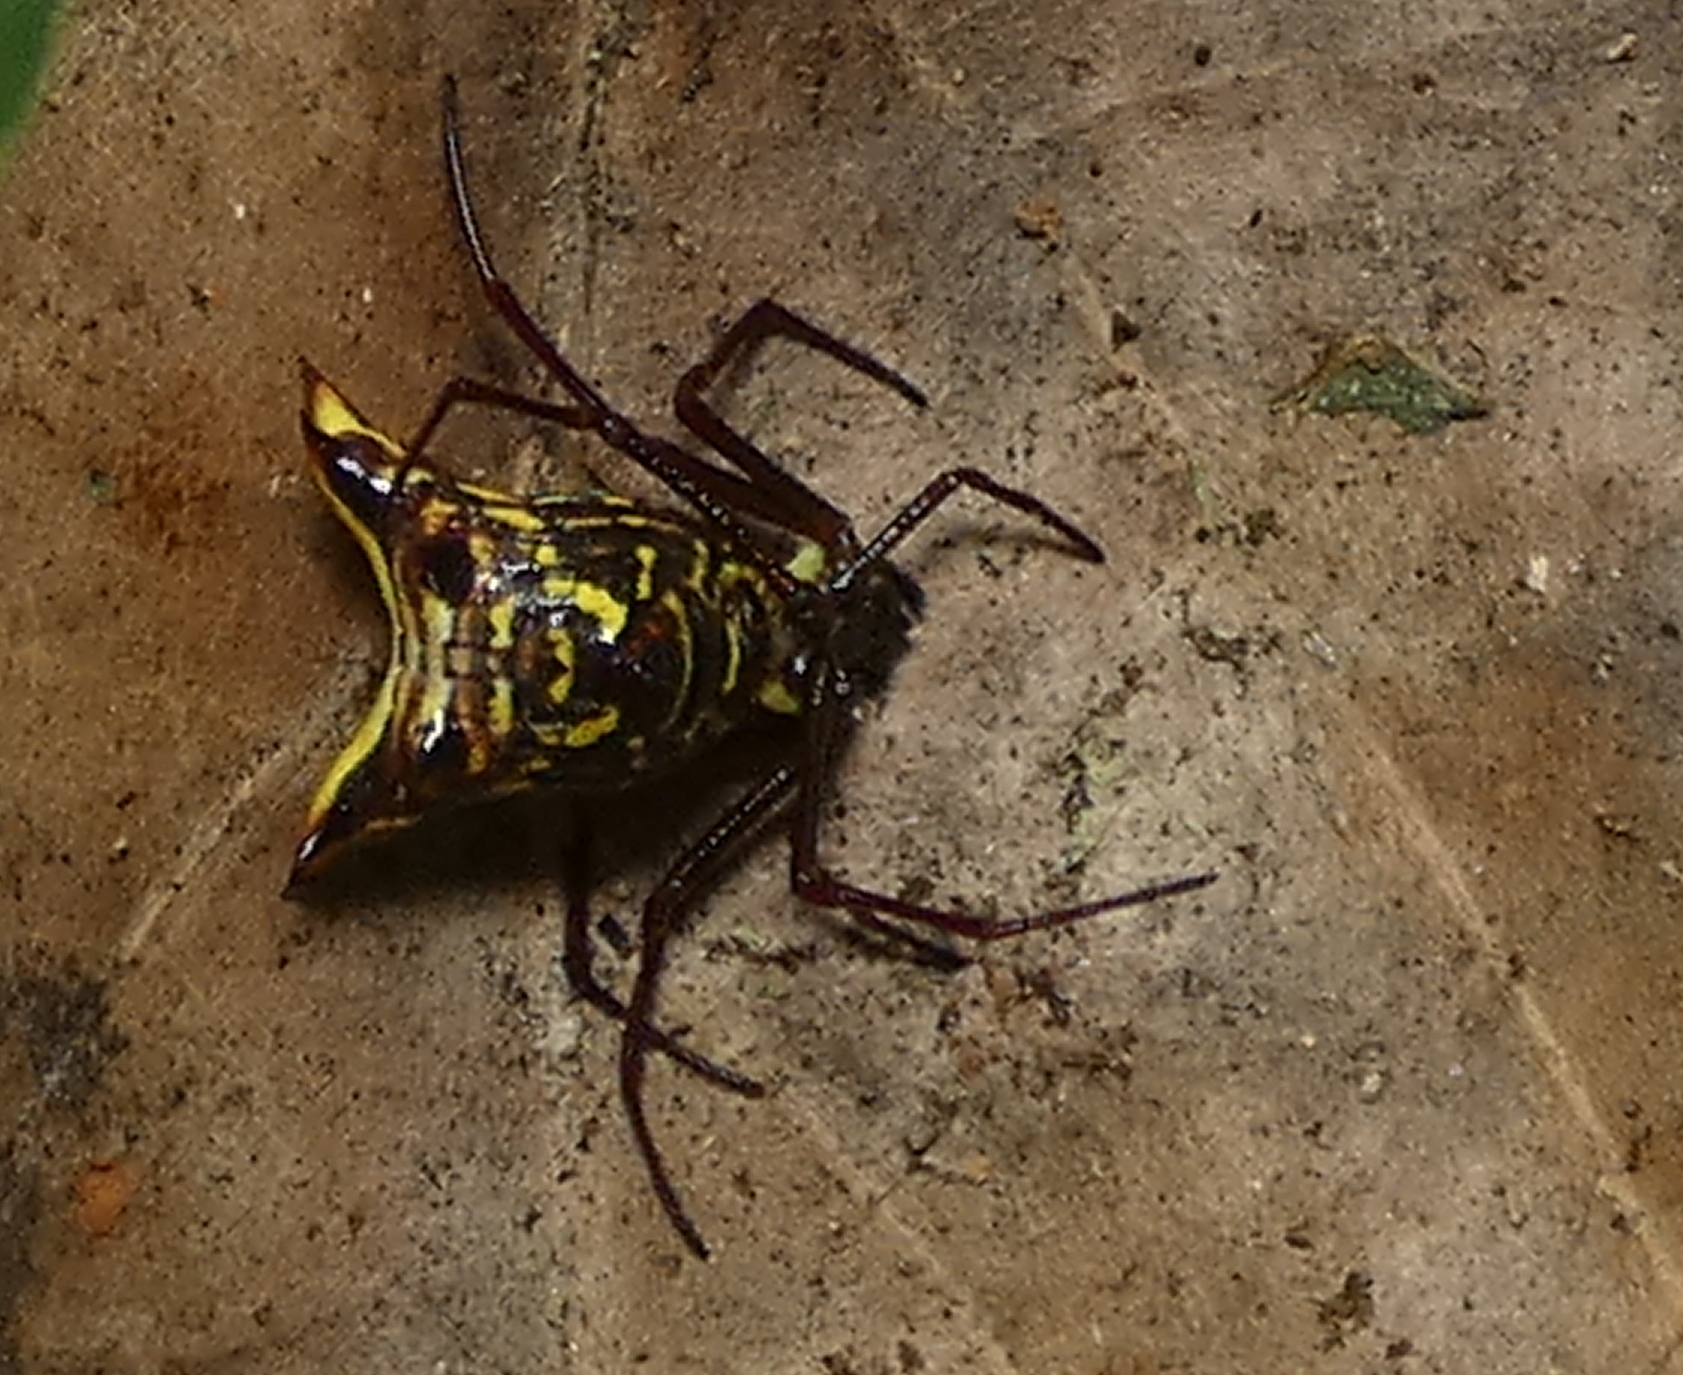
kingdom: Animalia
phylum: Arthropoda
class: Arachnida
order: Araneae
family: Araneidae
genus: Micrathena
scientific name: Micrathena fissispina
